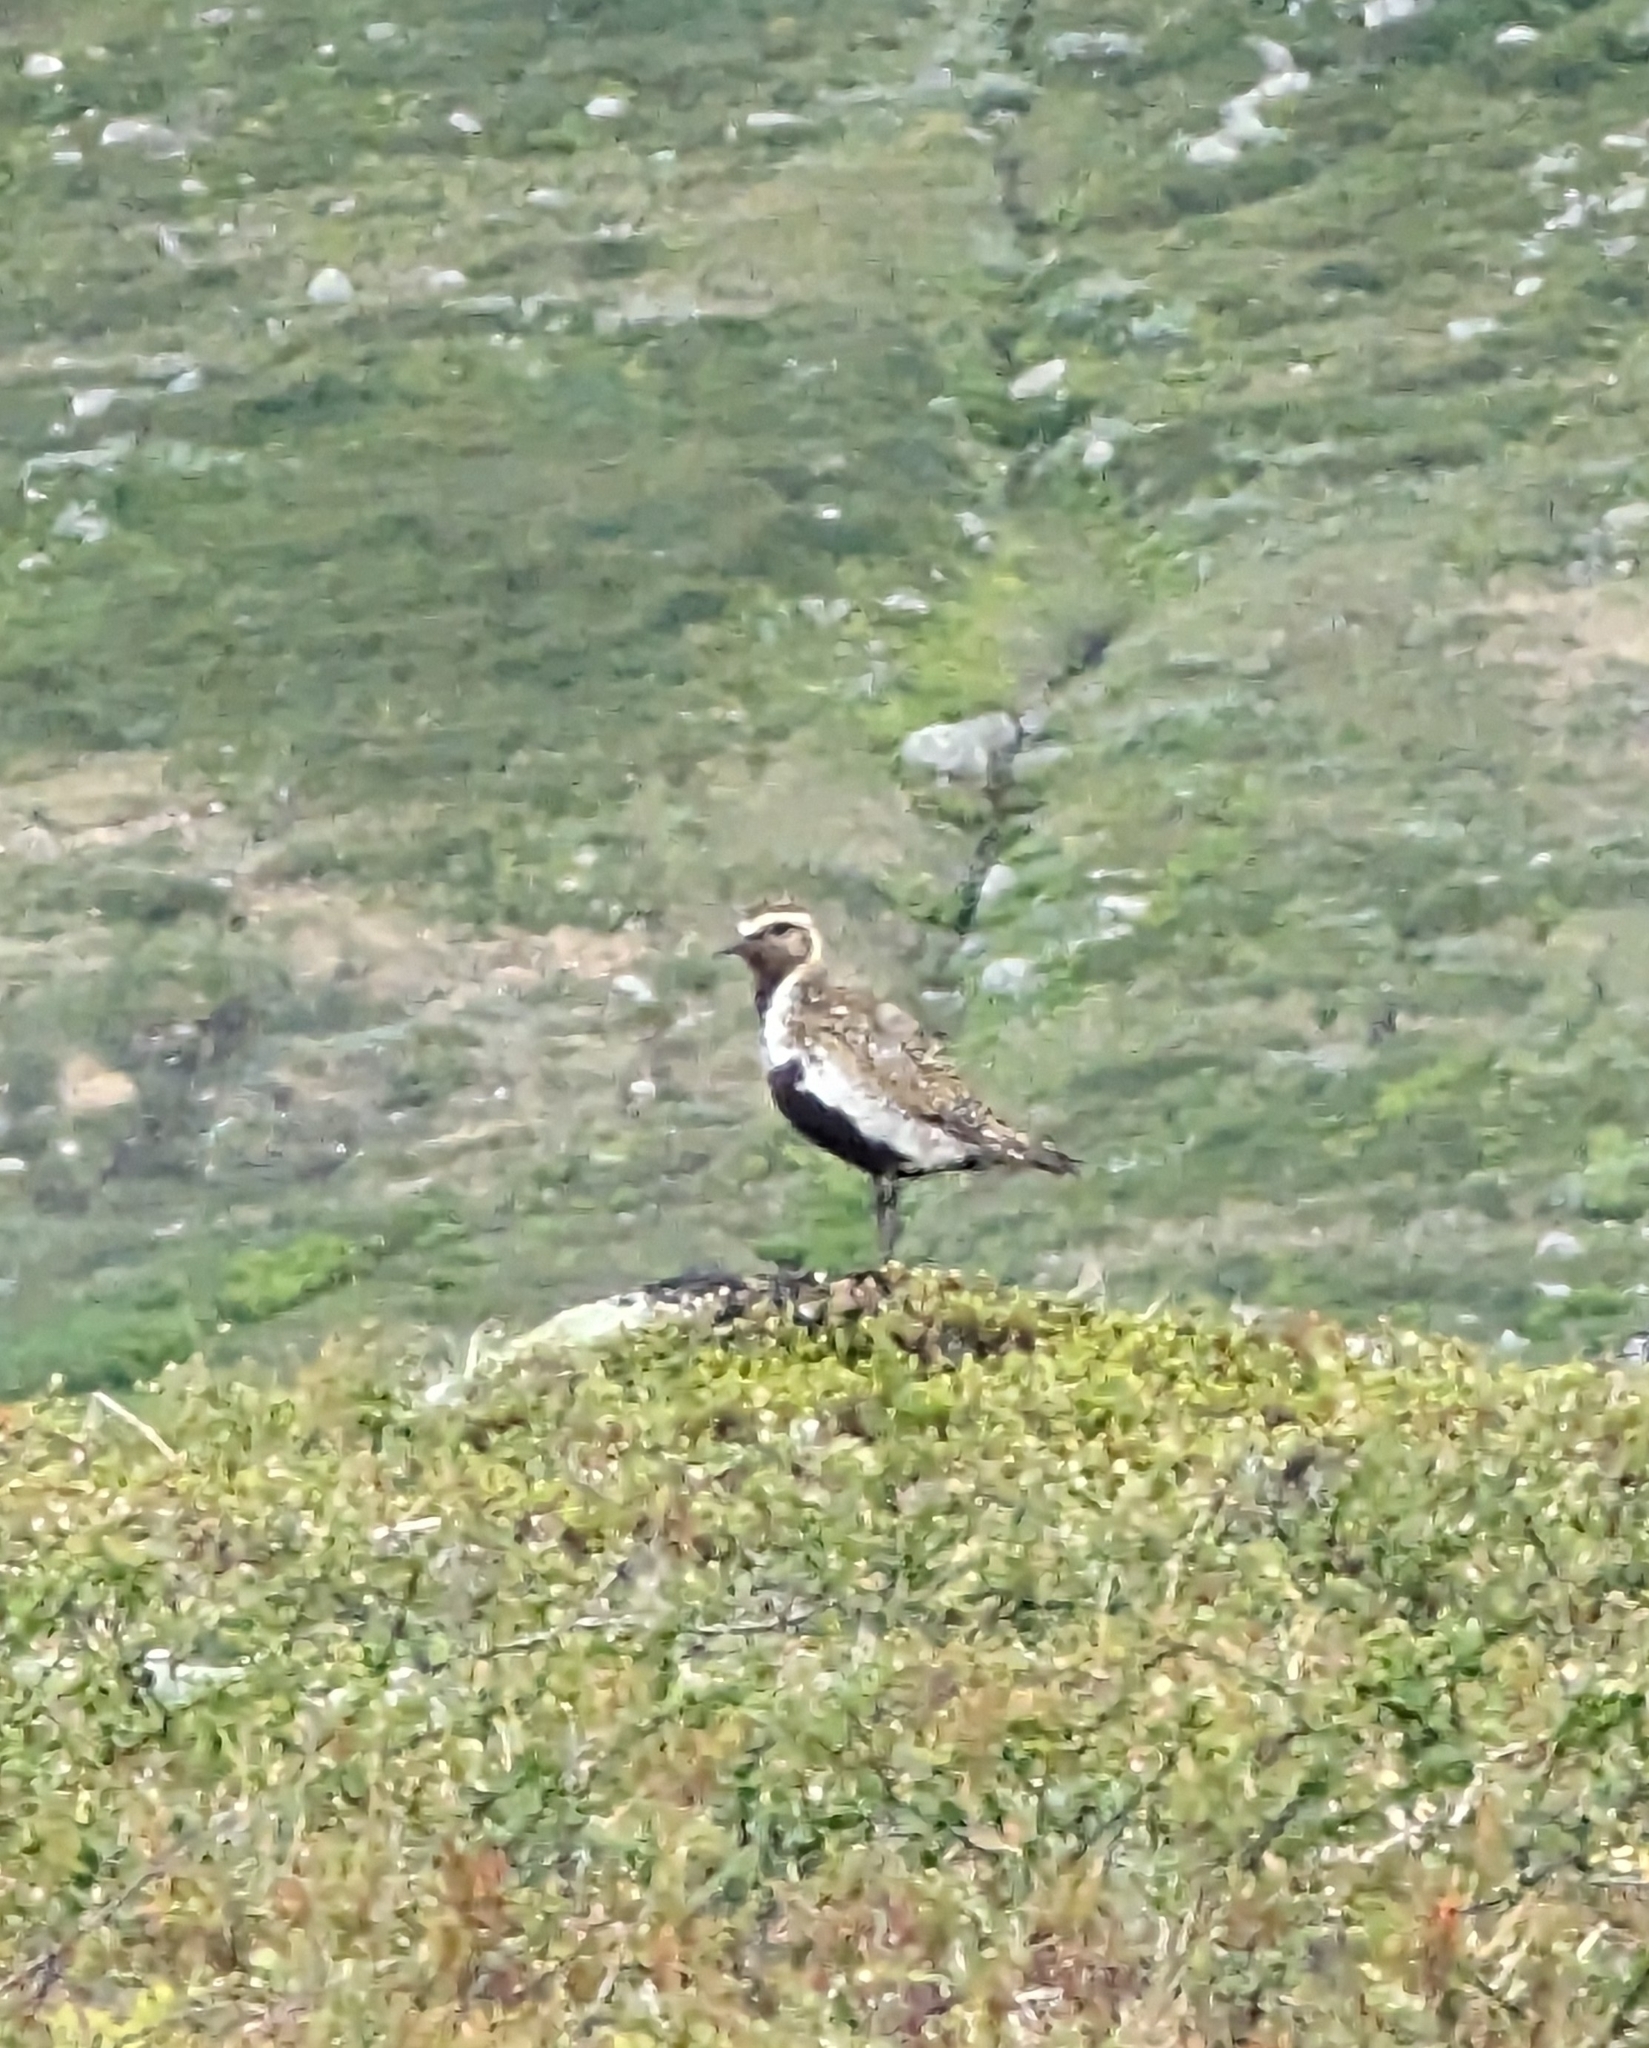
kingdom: Animalia
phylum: Chordata
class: Aves
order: Charadriiformes
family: Charadriidae
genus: Pluvialis
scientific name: Pluvialis apricaria
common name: European golden plover
